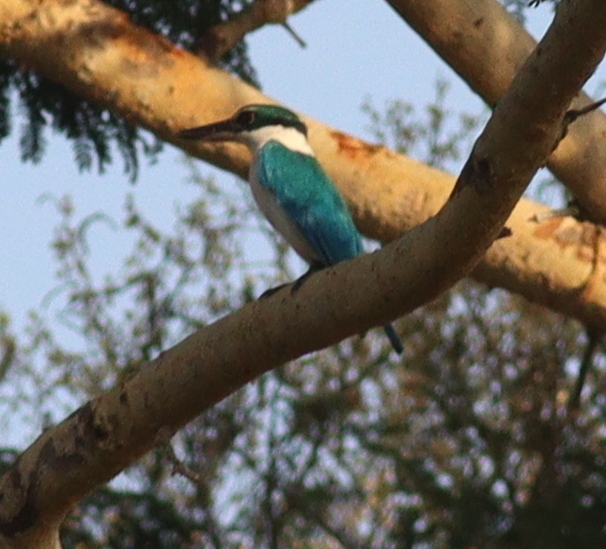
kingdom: Animalia
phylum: Chordata
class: Aves
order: Coraciiformes
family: Alcedinidae
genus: Todiramphus
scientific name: Todiramphus chloris
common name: Collared kingfisher
